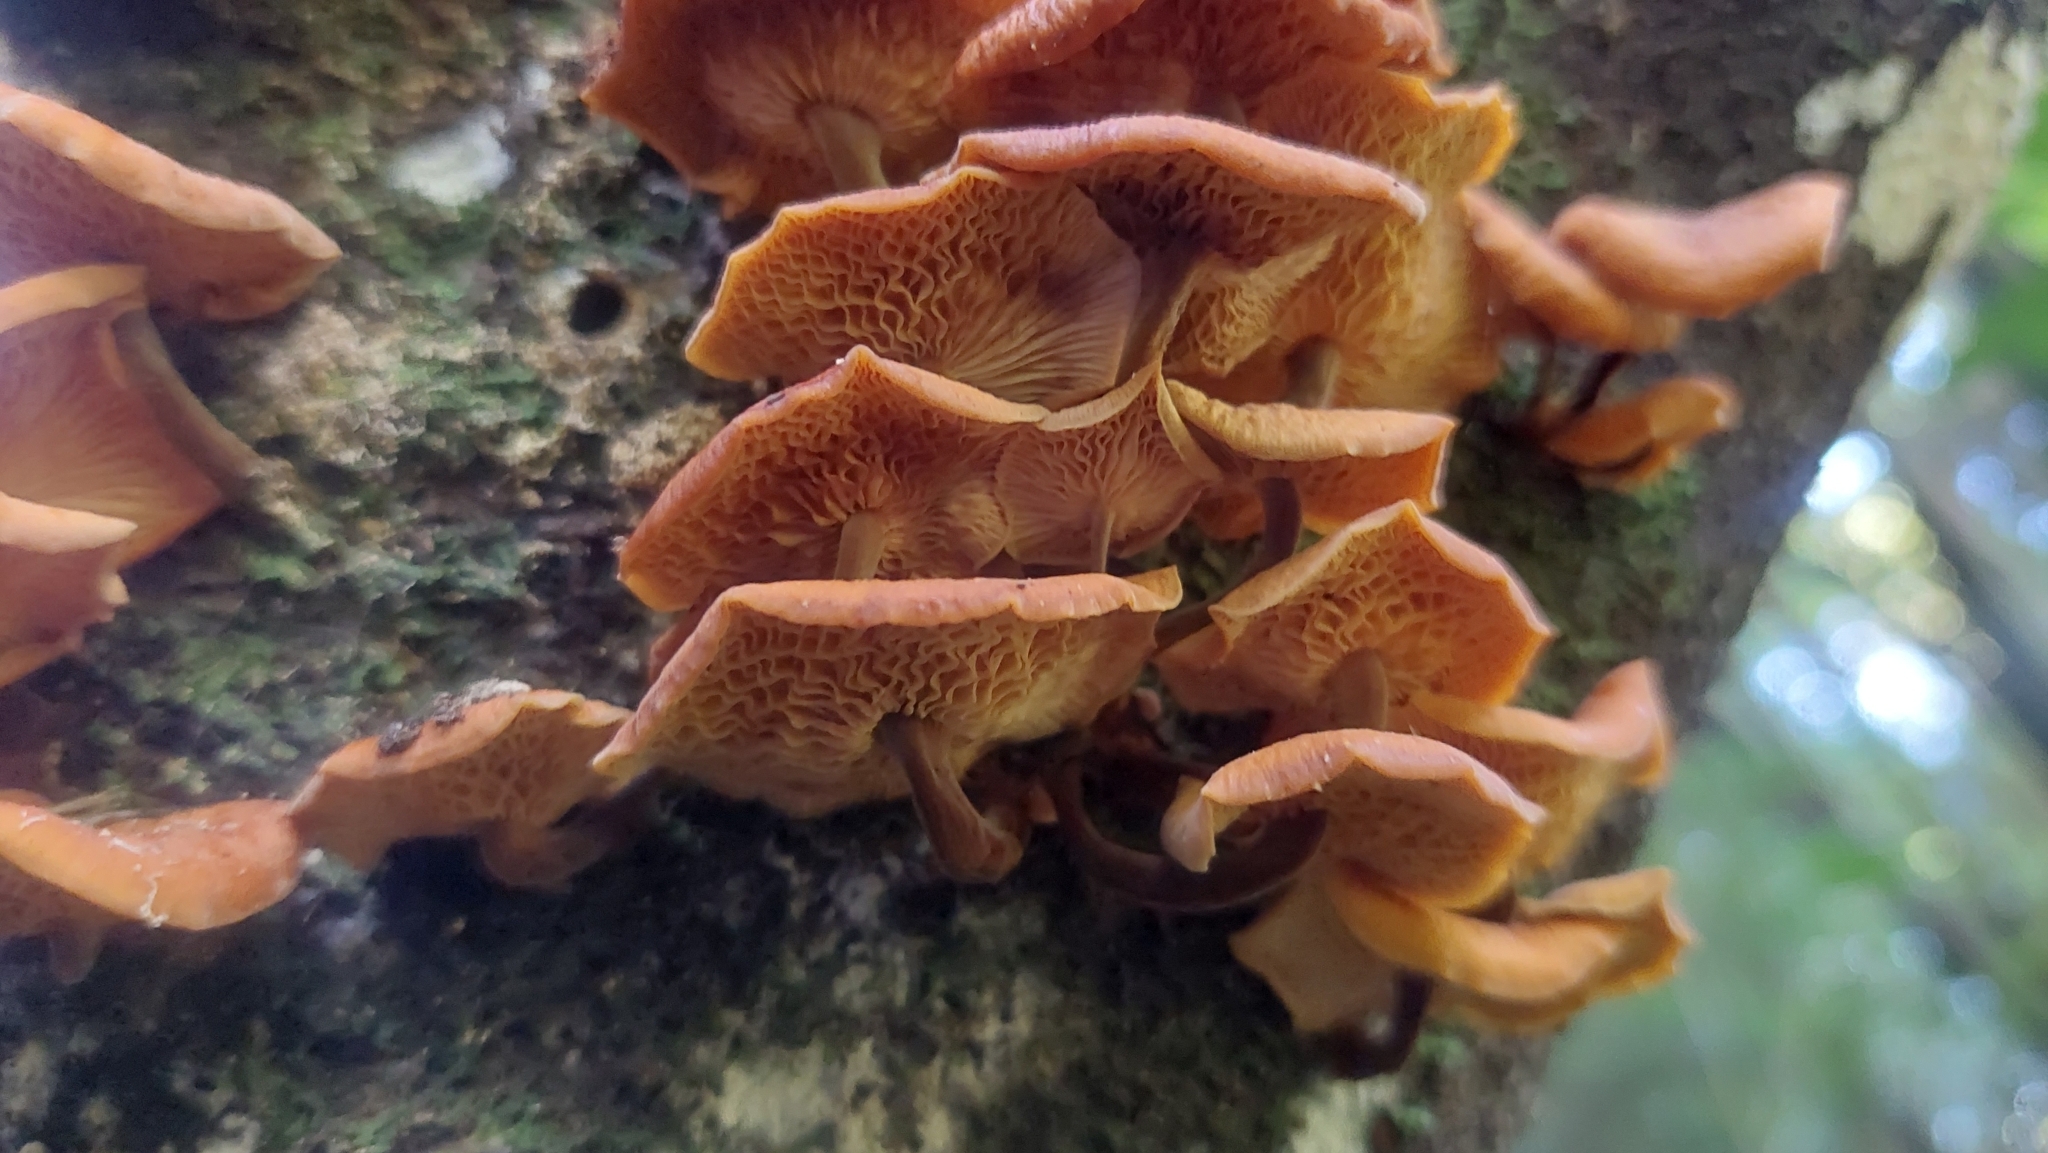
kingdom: Fungi
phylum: Basidiomycota
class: Agaricomycetes
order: Agaricales
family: Physalacriaceae
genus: Flammulina
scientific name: Flammulina velutipes
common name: Velvet shank
